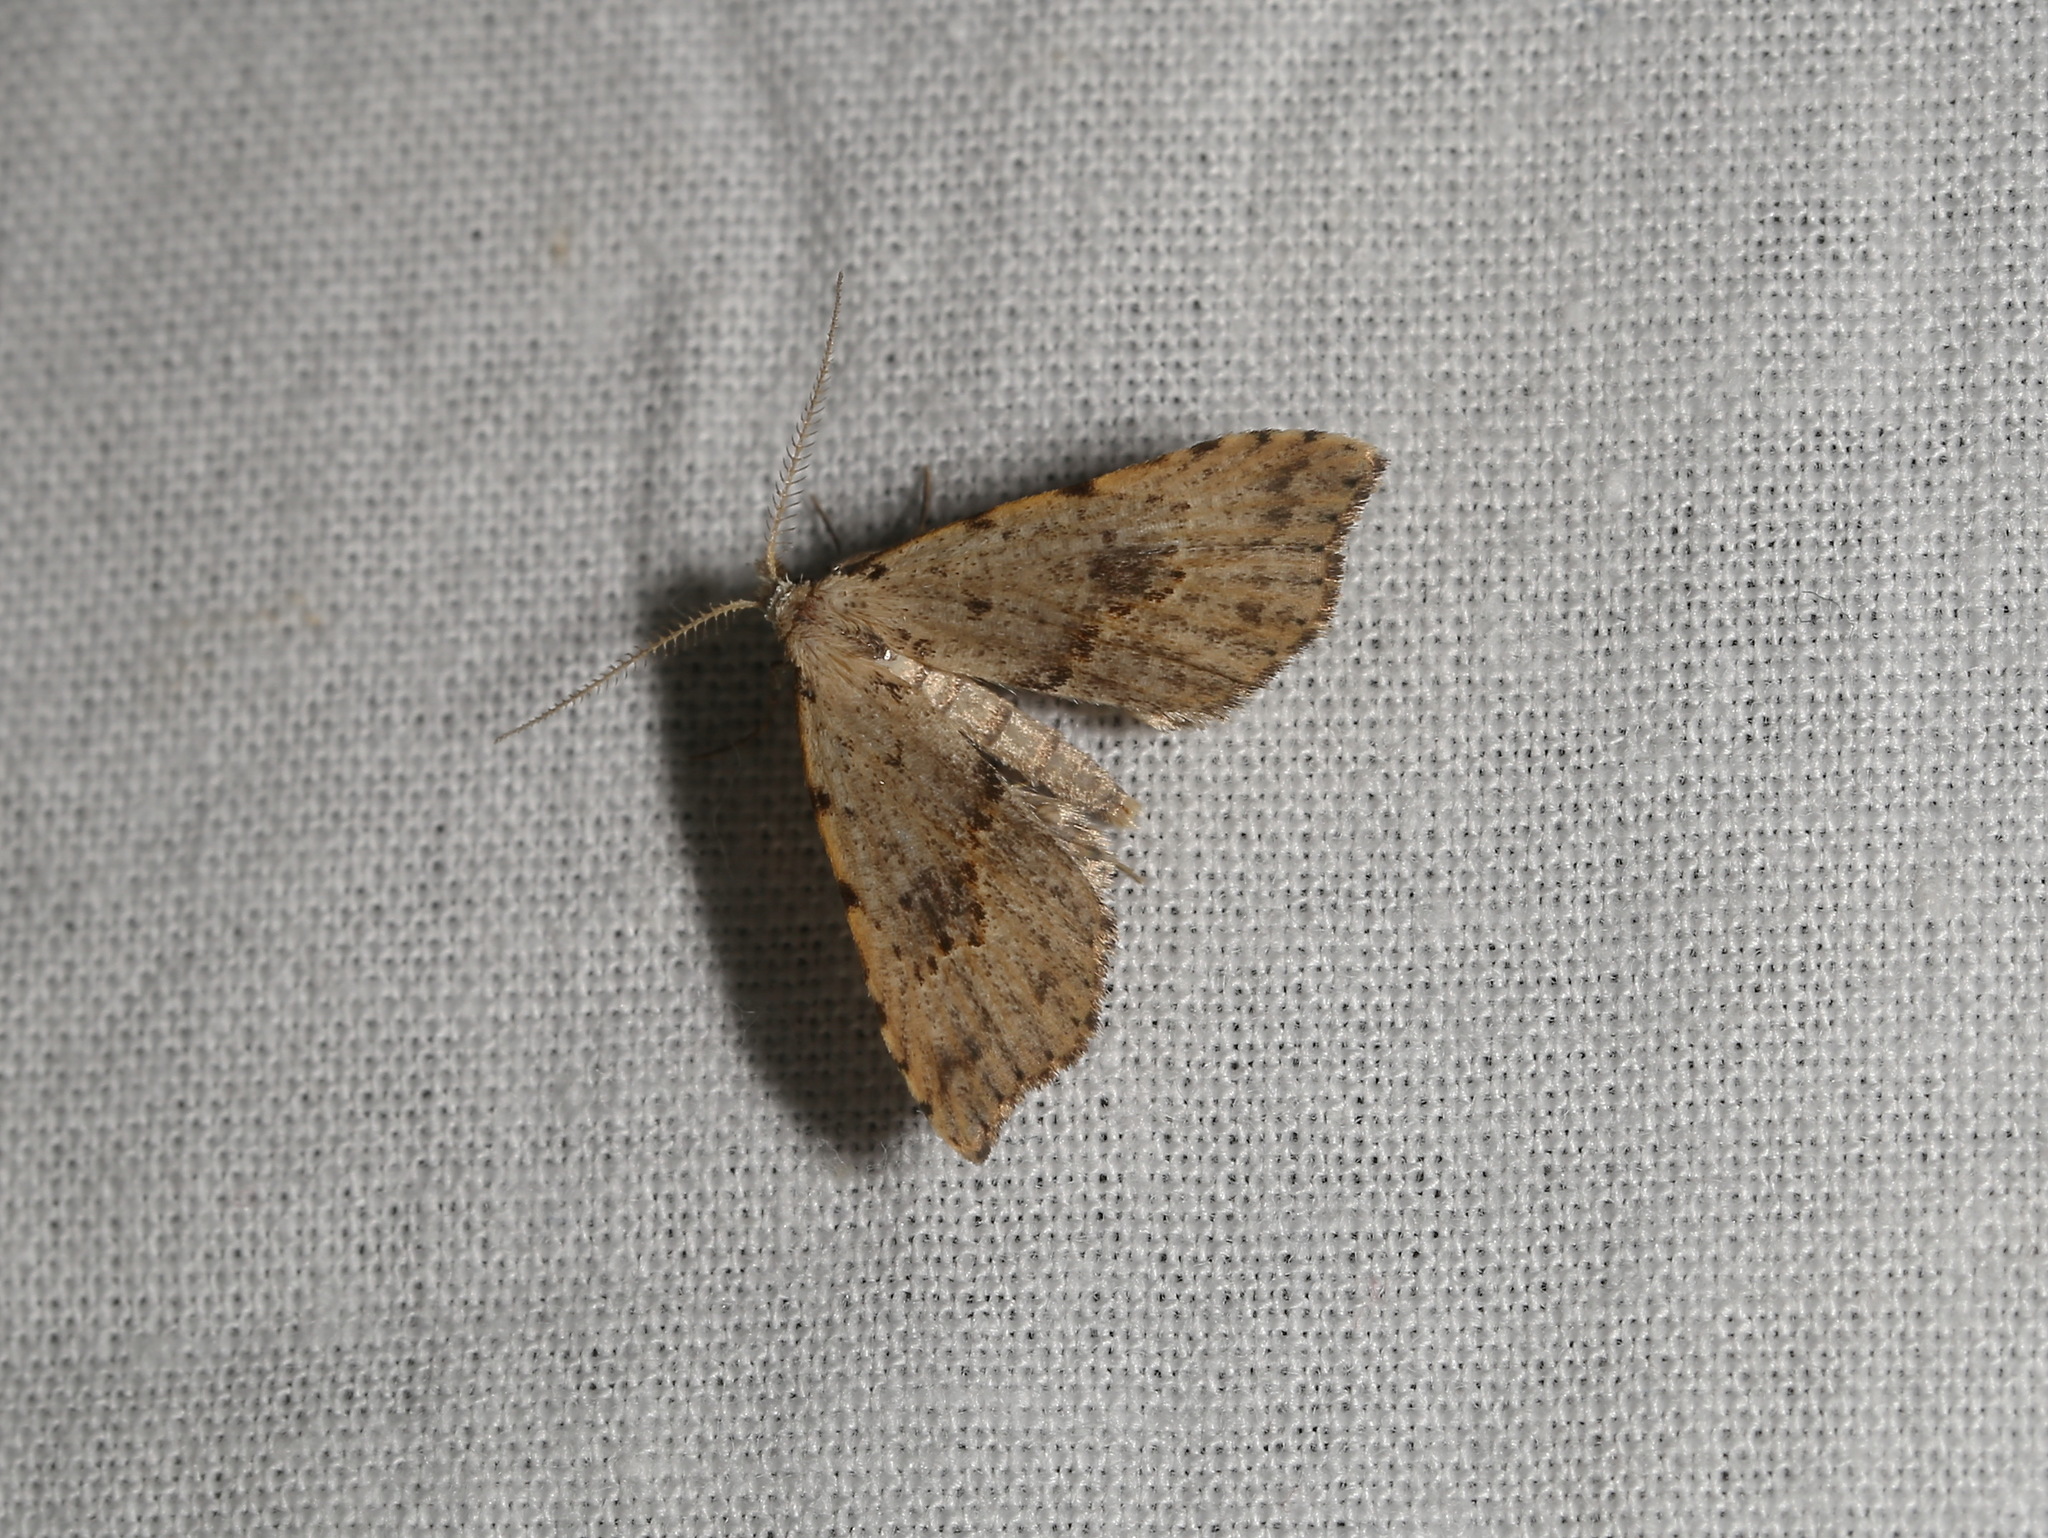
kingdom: Animalia
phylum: Arthropoda
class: Insecta
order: Lepidoptera
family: Erebidae
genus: Trigonistis
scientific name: Trigonistis asthenopa
